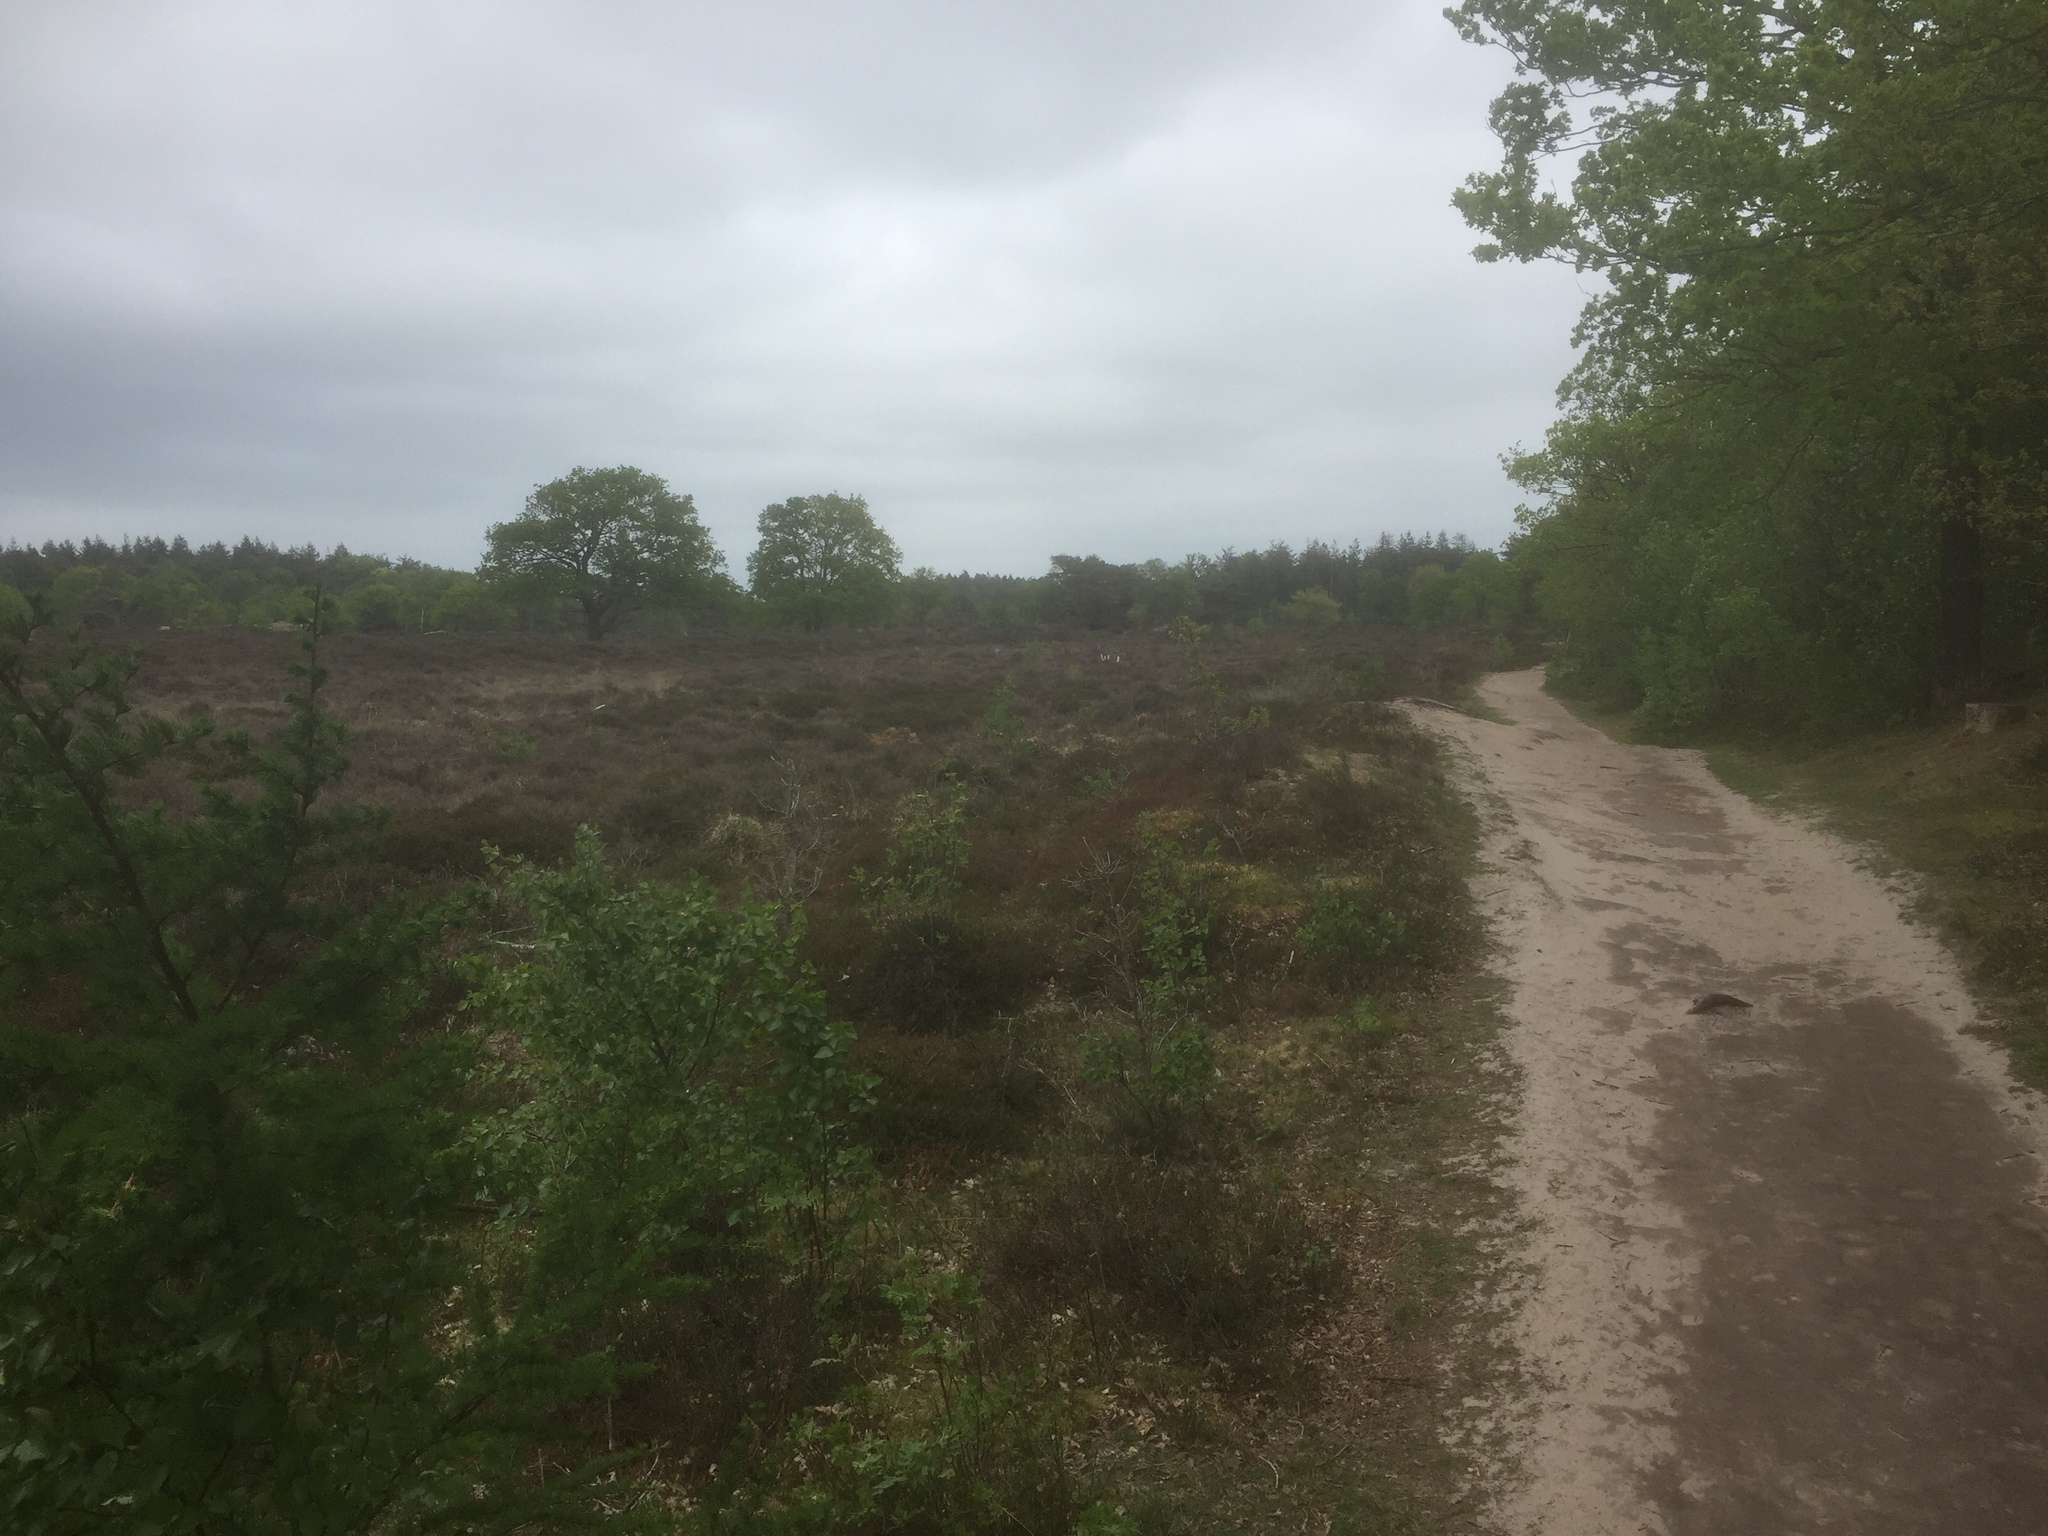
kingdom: Plantae
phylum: Tracheophyta
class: Magnoliopsida
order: Ericales
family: Ericaceae
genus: Calluna
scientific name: Calluna vulgaris
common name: Heather
